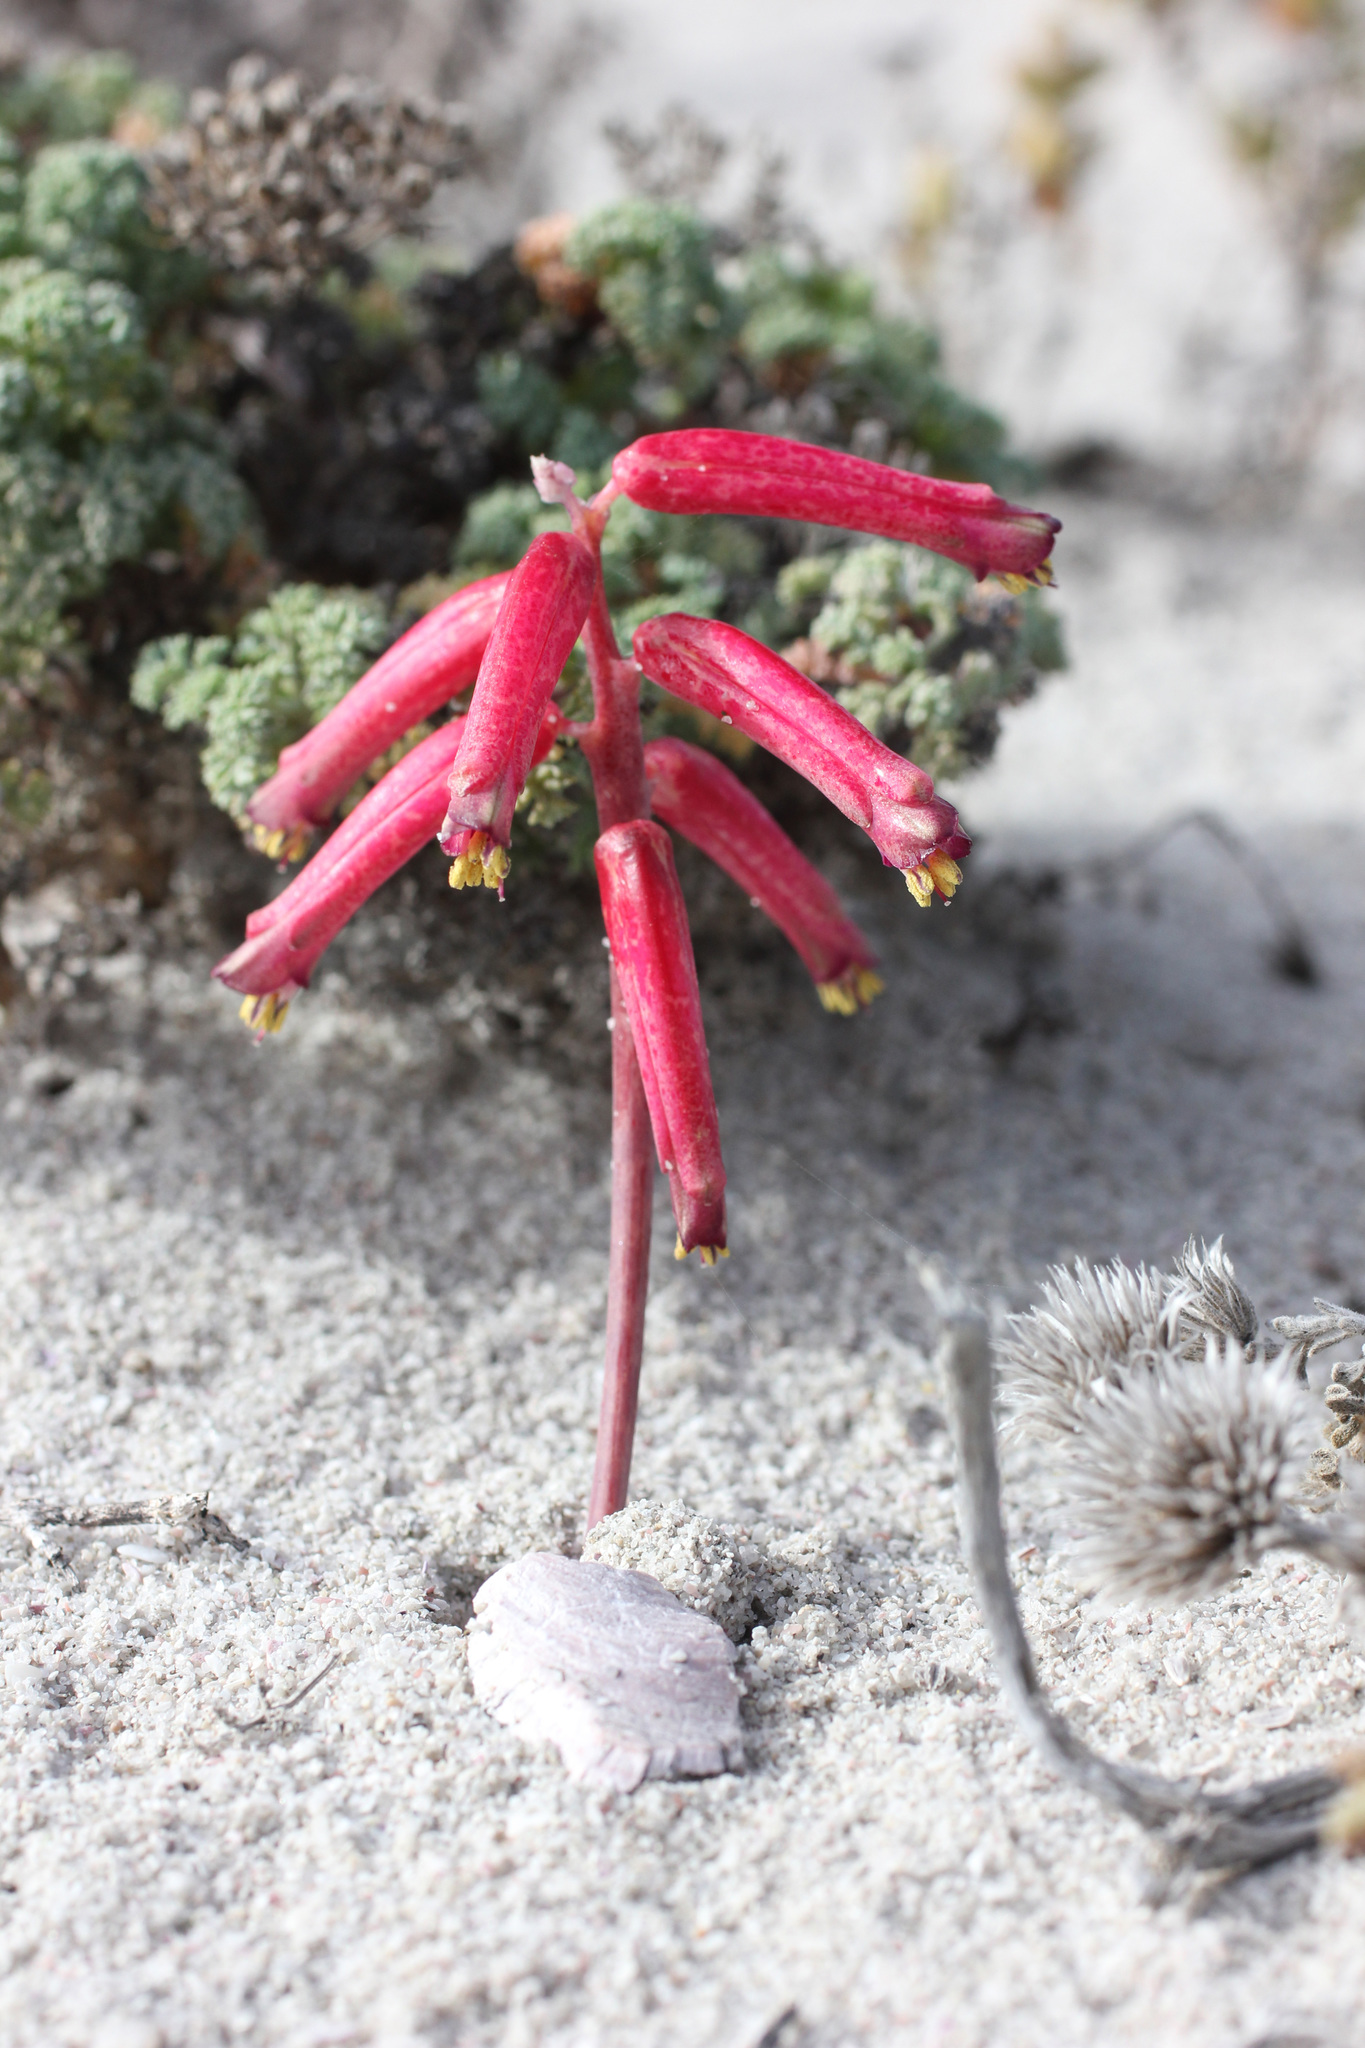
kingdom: Plantae
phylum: Tracheophyta
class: Liliopsida
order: Asparagales
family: Asparagaceae
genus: Lachenalia
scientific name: Lachenalia punctata
